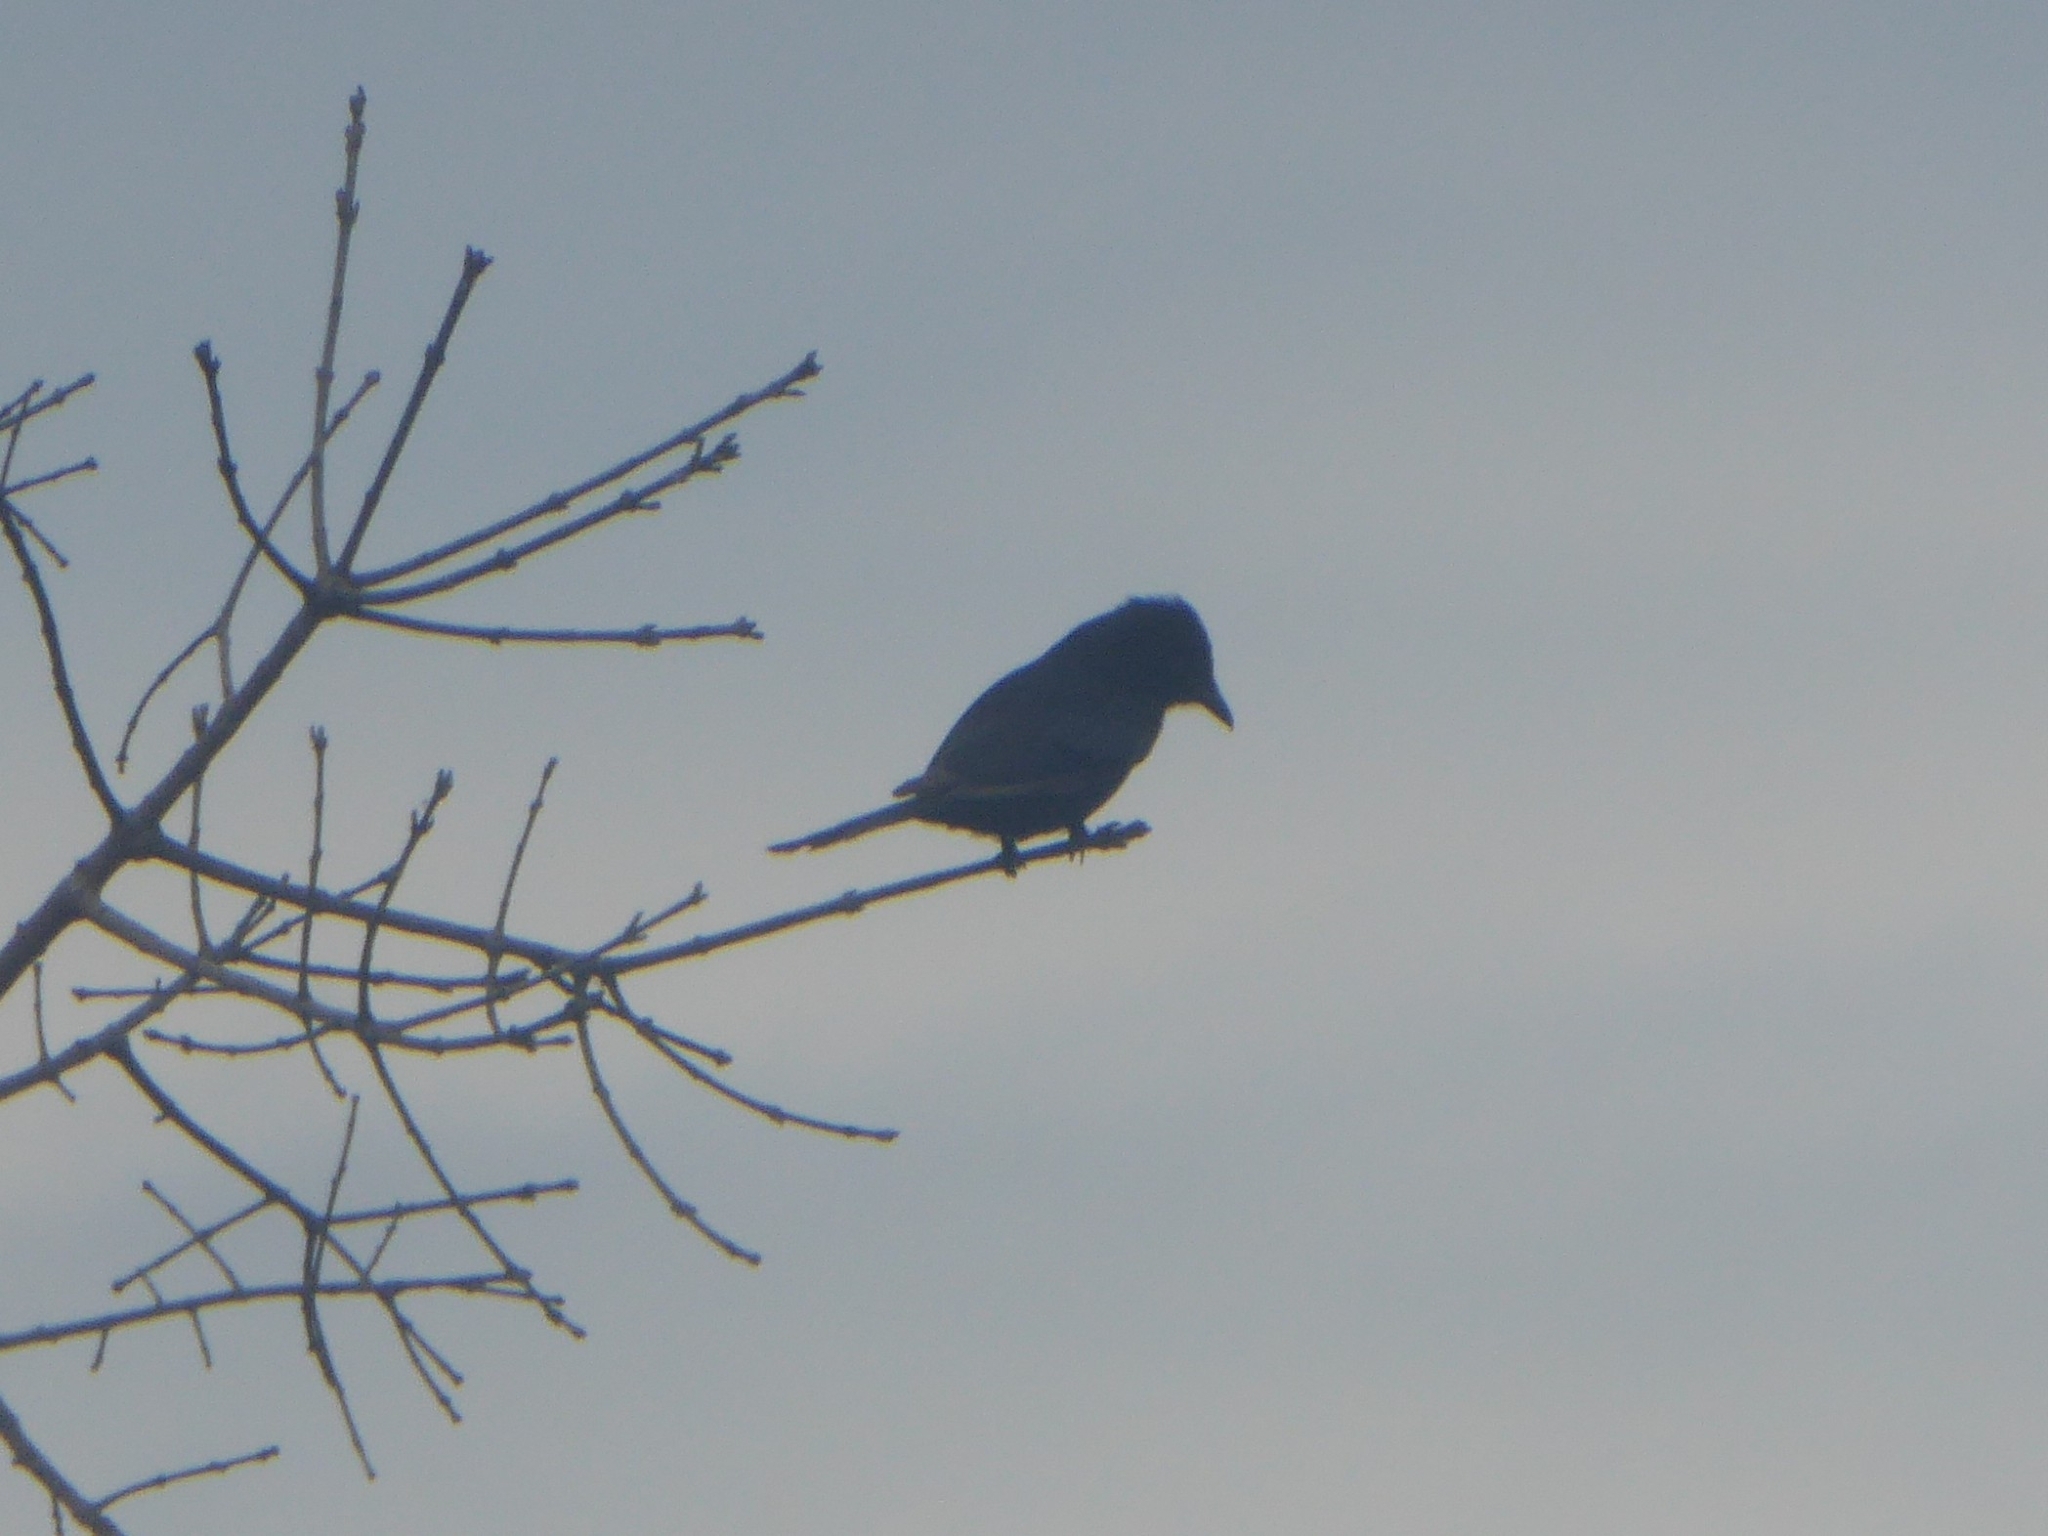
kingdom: Animalia
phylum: Chordata
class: Aves
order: Passeriformes
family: Dicruridae
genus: Dicrurus
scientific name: Dicrurus adsimilis
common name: Fork-tailed drongo
